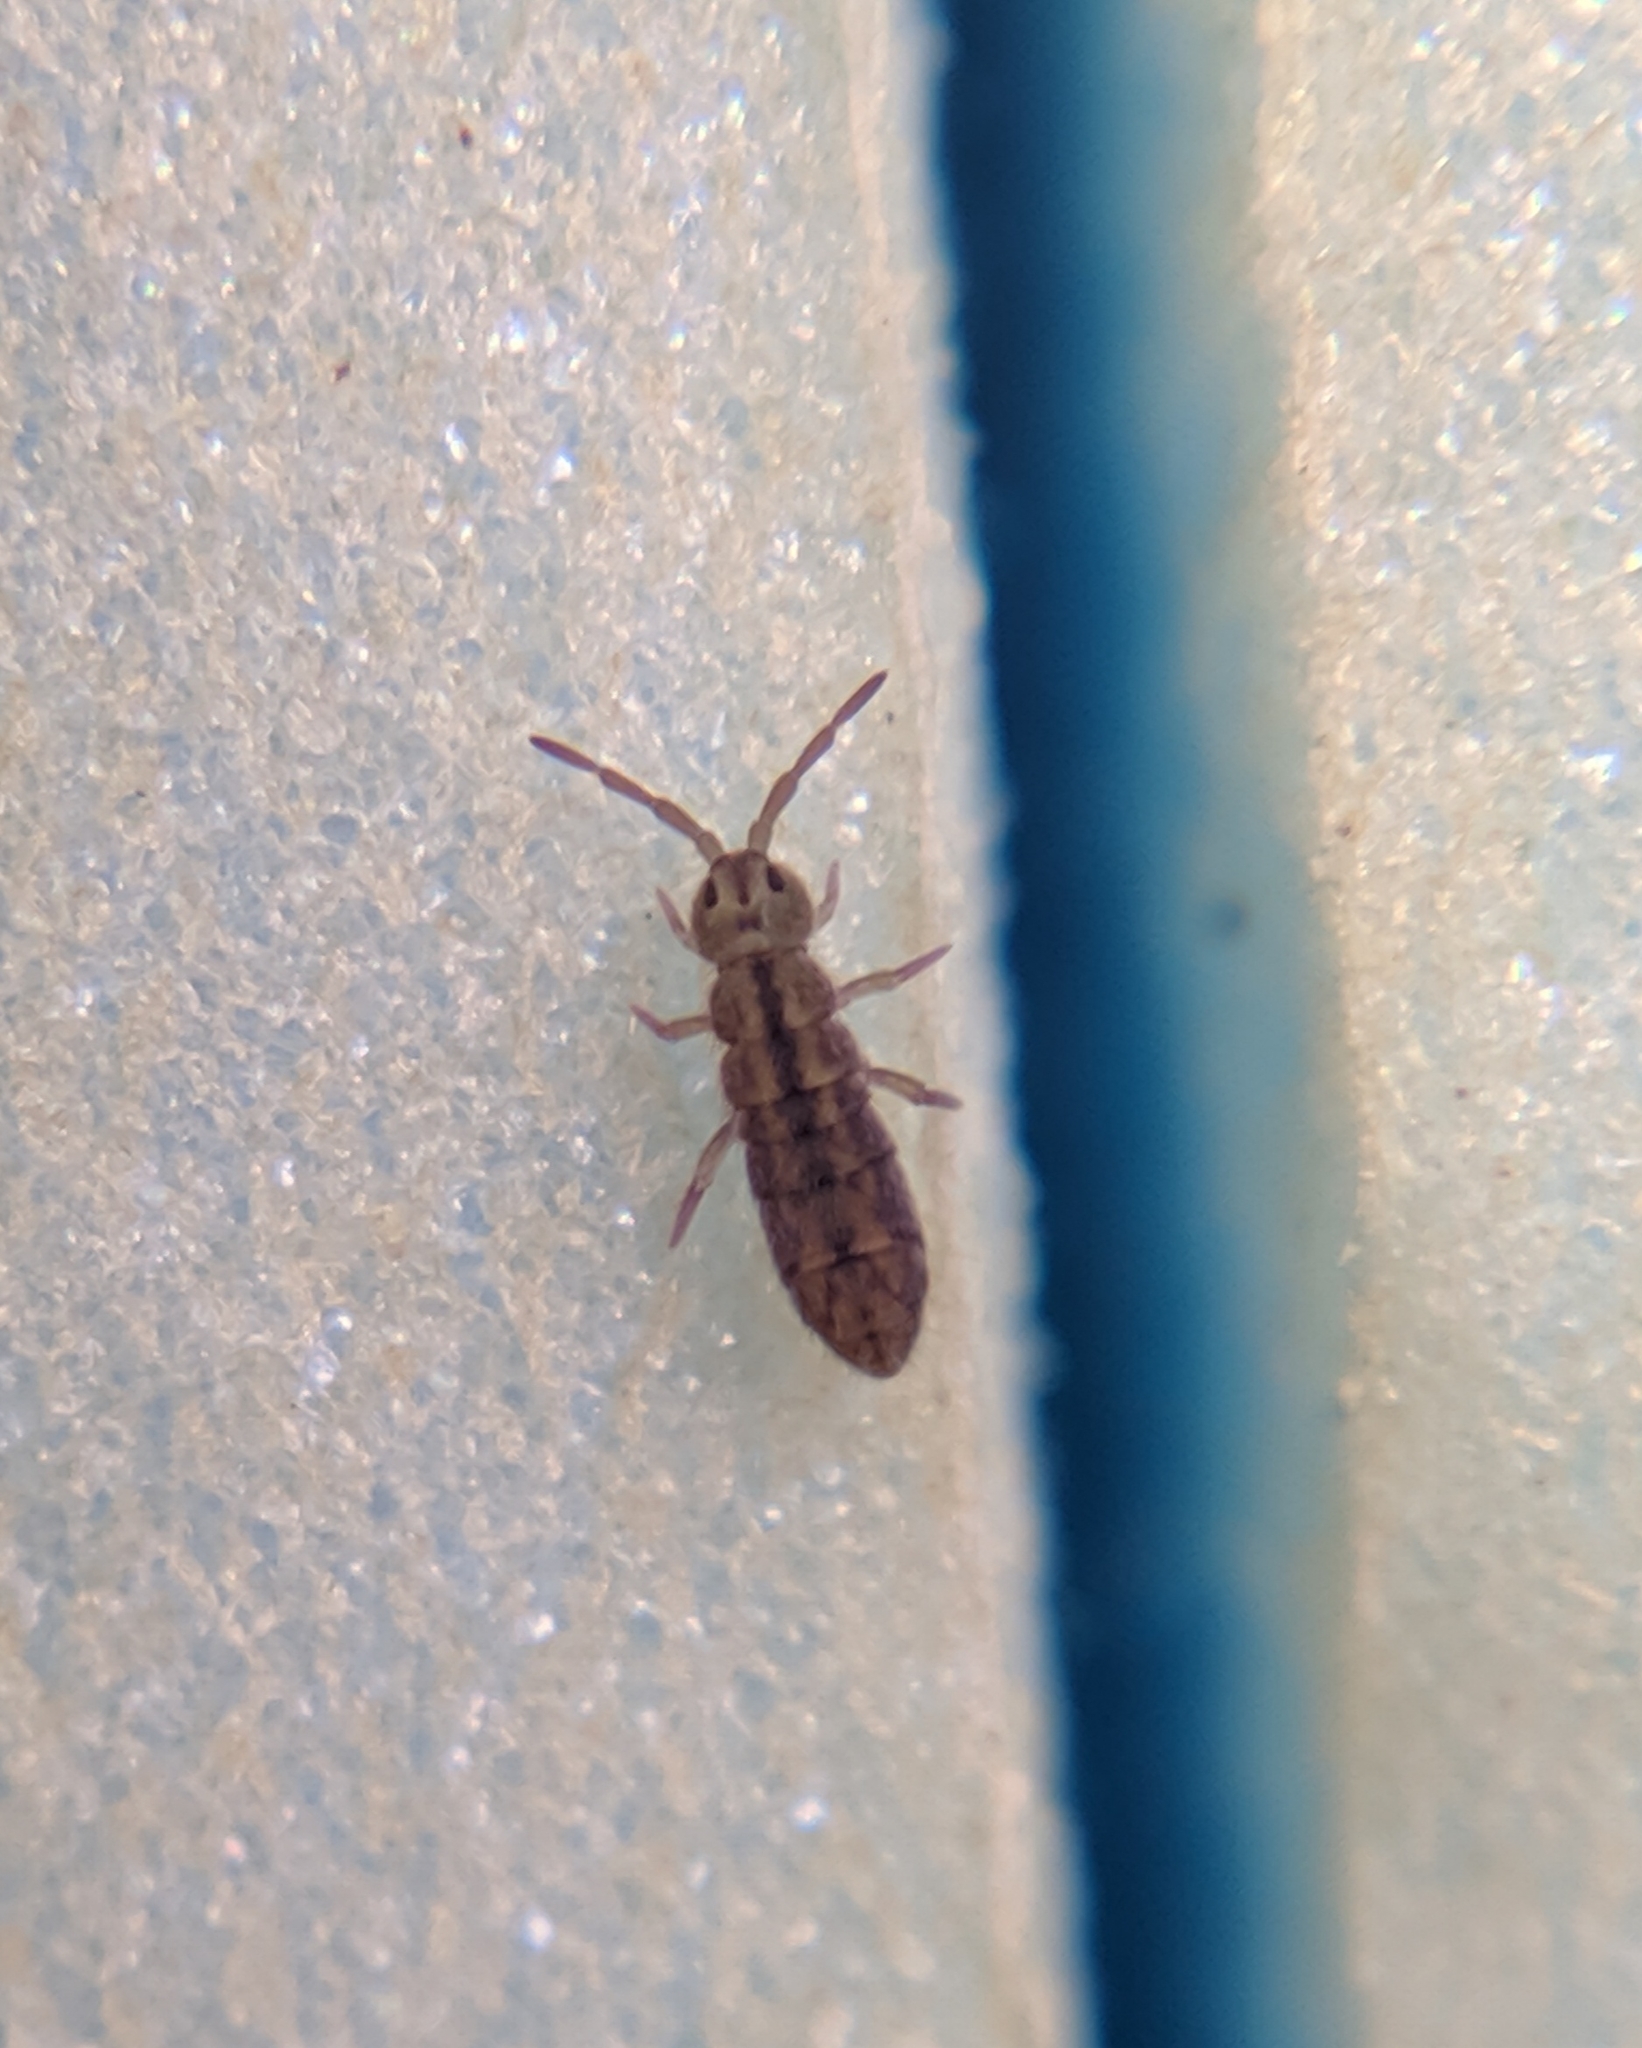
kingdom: Animalia
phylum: Arthropoda
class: Collembola
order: Entomobryomorpha
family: Isotomidae
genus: Isotomurus
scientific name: Isotomurus maculatus
